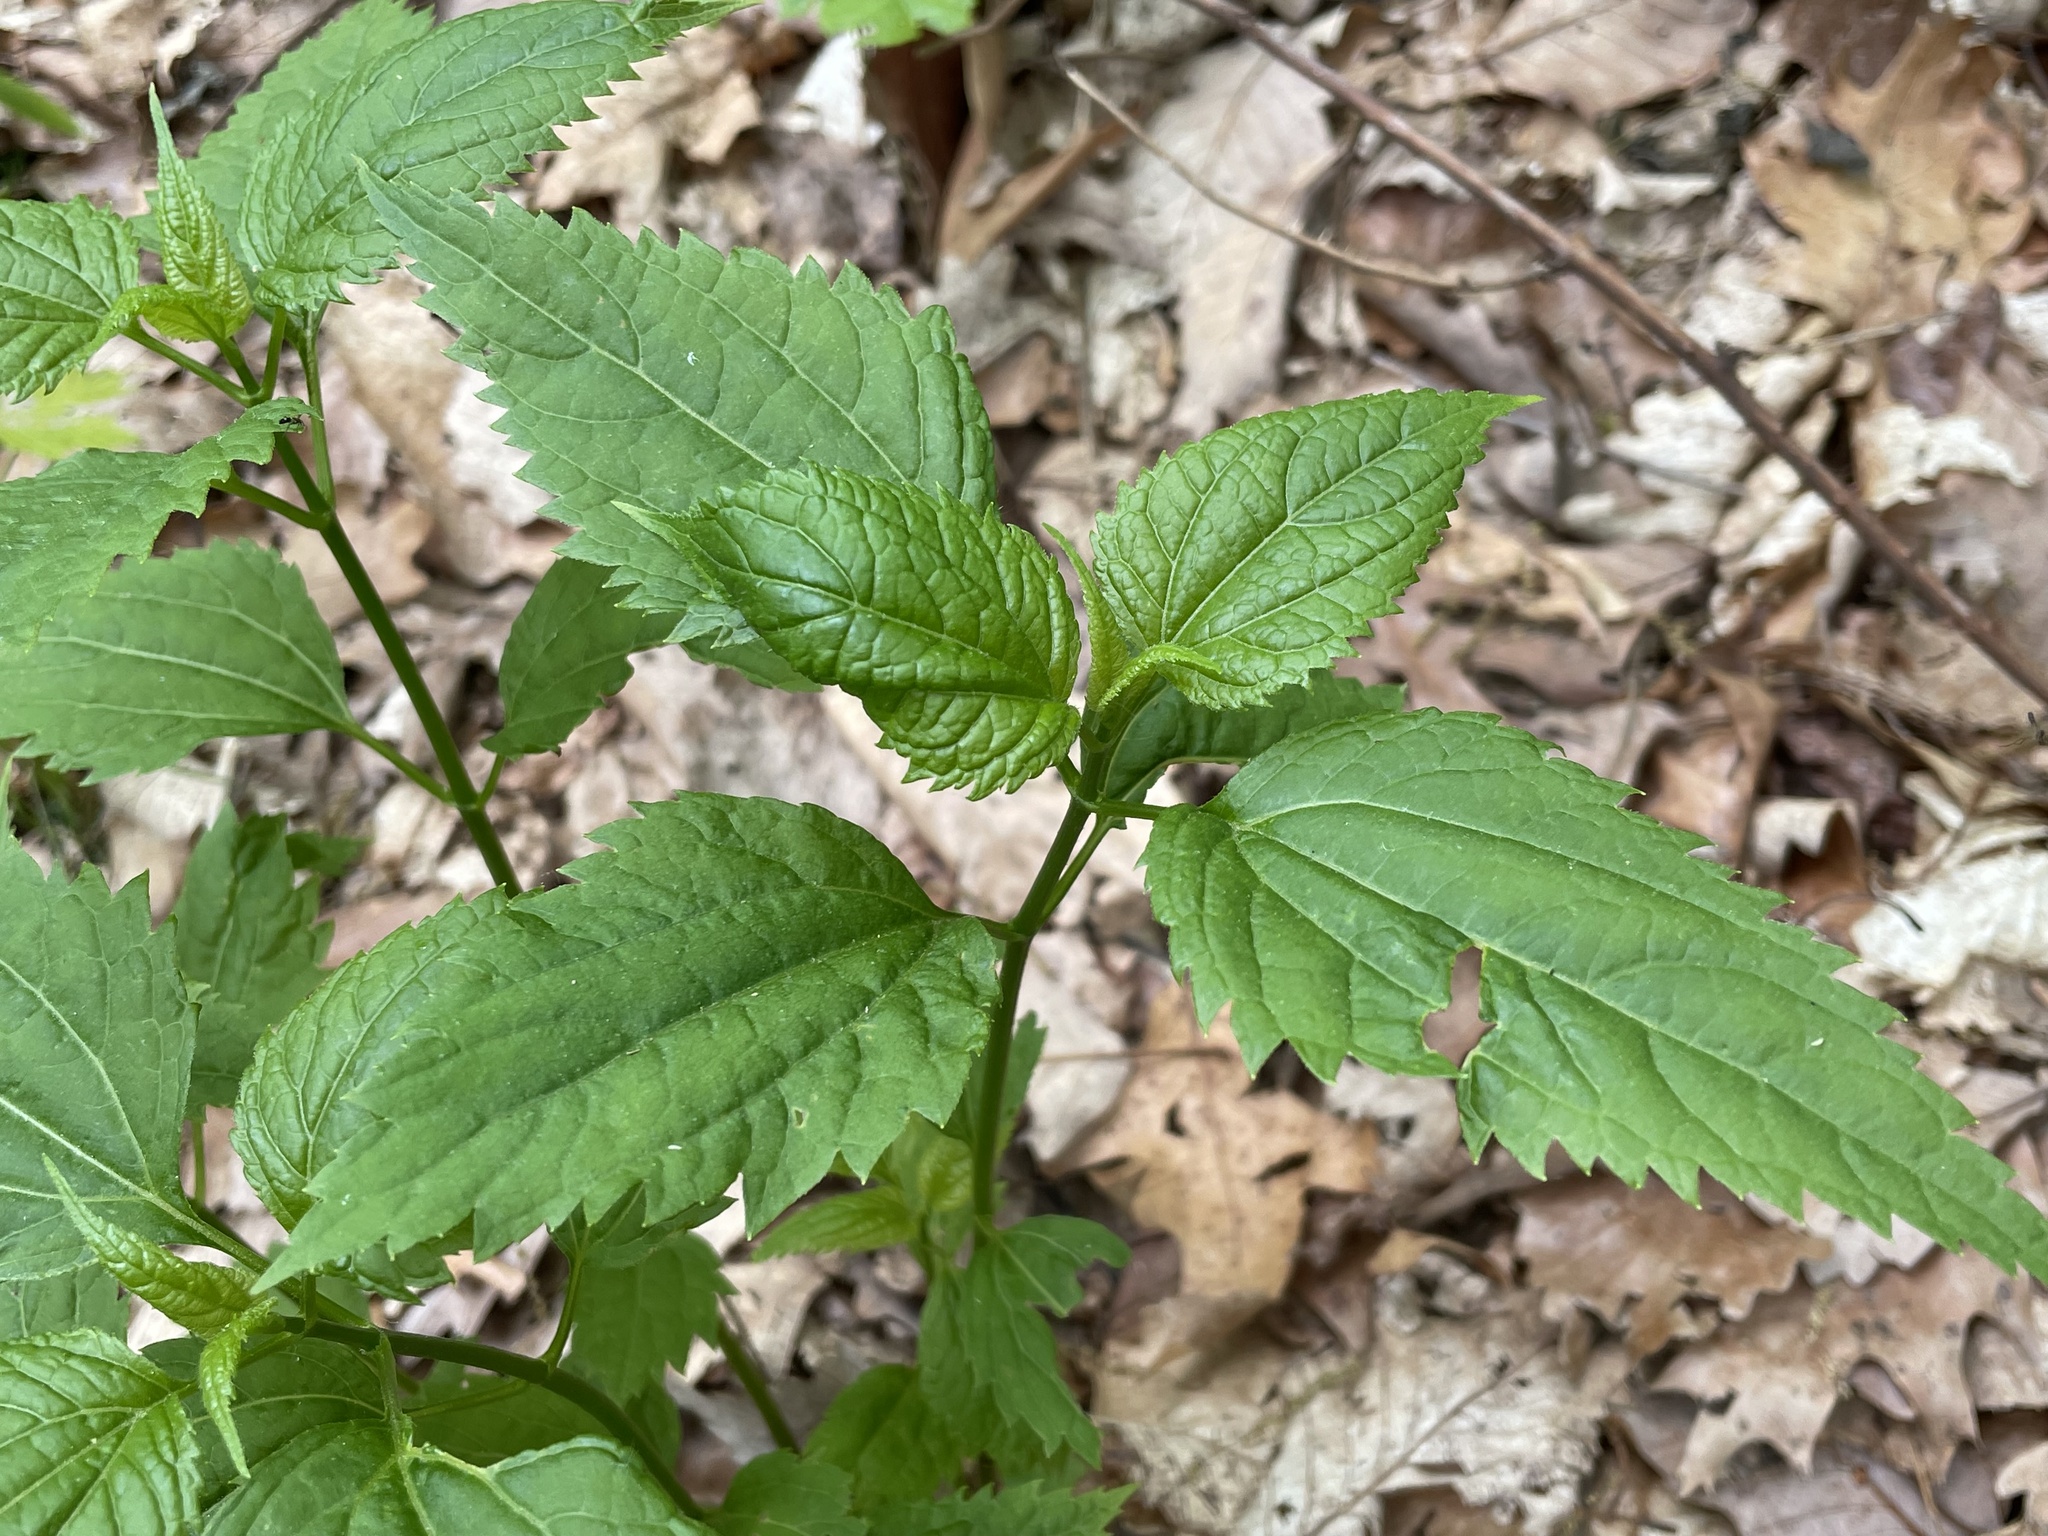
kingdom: Plantae
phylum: Tracheophyta
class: Magnoliopsida
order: Asterales
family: Asteraceae
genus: Ageratina
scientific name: Ageratina altissima
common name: White snakeroot
